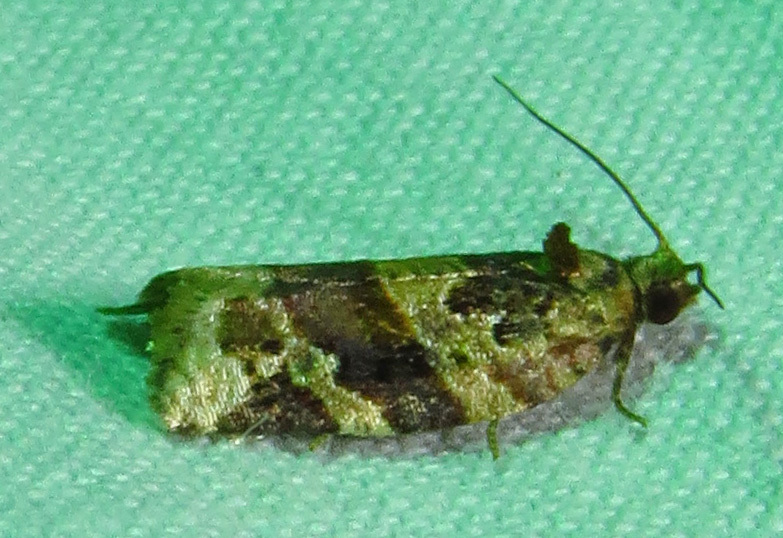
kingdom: Animalia
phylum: Arthropoda
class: Insecta
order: Lepidoptera
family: Tortricidae
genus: Argyrotaenia
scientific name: Argyrotaenia velutinana
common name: Red-banded leafroller moth
